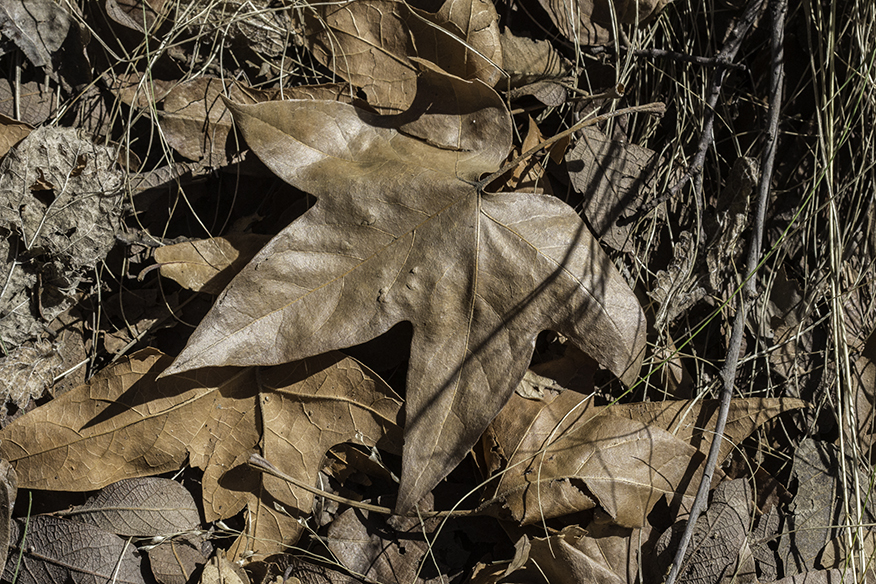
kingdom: Plantae
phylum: Tracheophyta
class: Magnoliopsida
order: Proteales
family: Platanaceae
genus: Platanus
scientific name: Platanus wrightii
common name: Arizona sycamore
